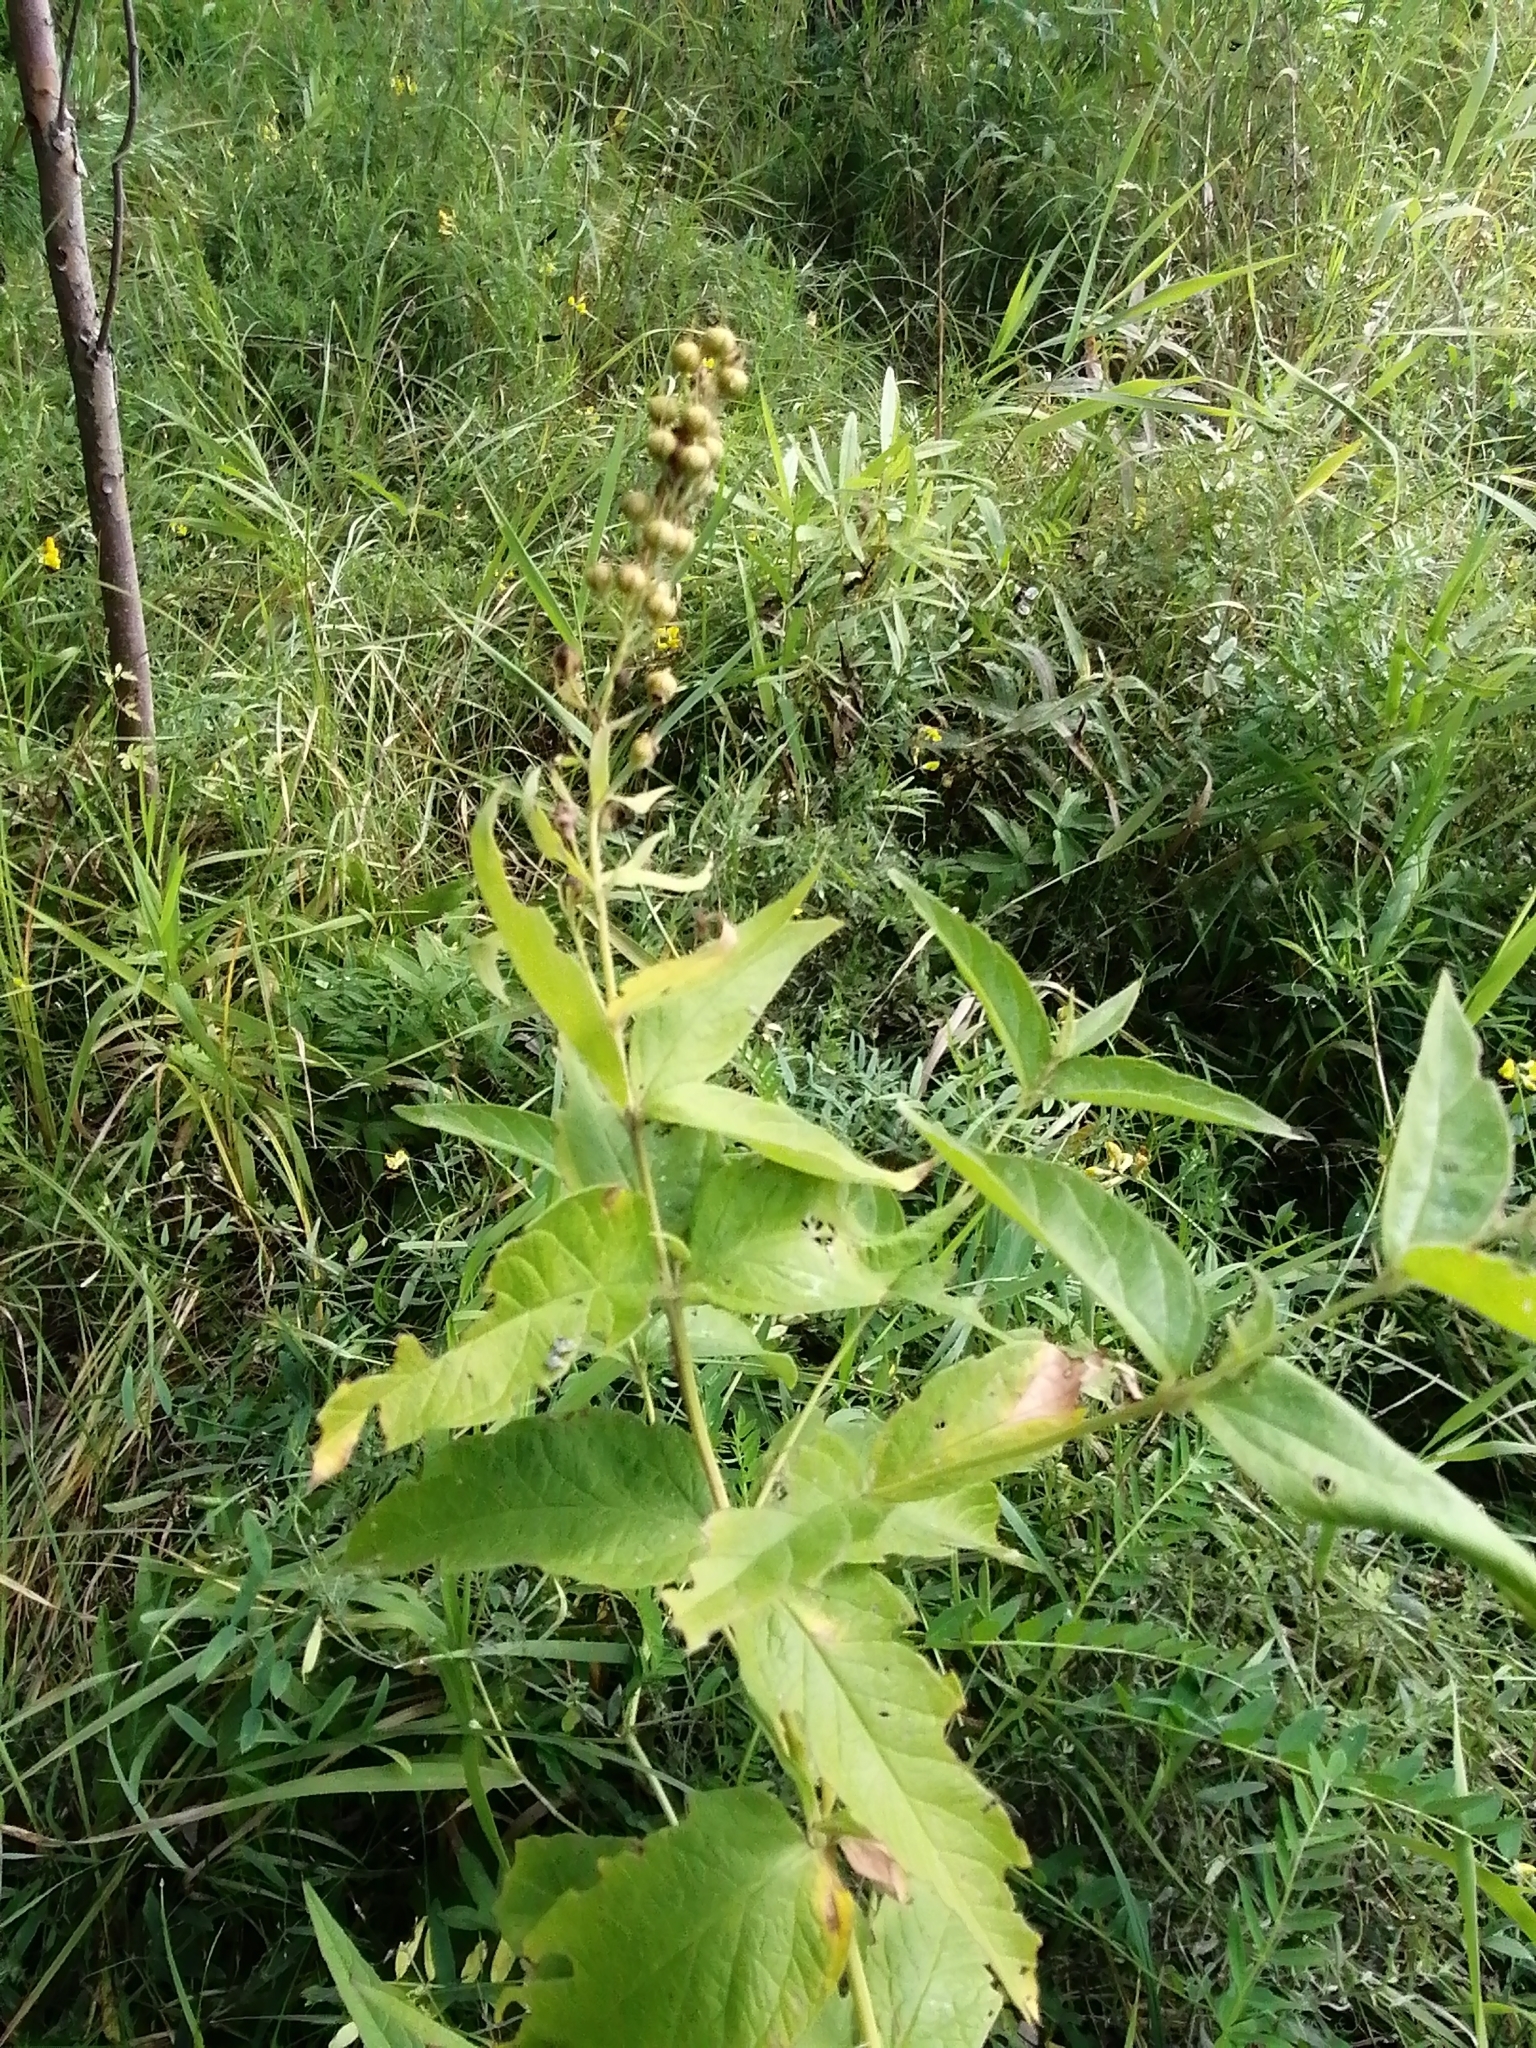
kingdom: Plantae
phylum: Tracheophyta
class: Magnoliopsida
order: Ericales
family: Primulaceae
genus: Lysimachia
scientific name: Lysimachia vulgaris
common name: Yellow loosestrife
